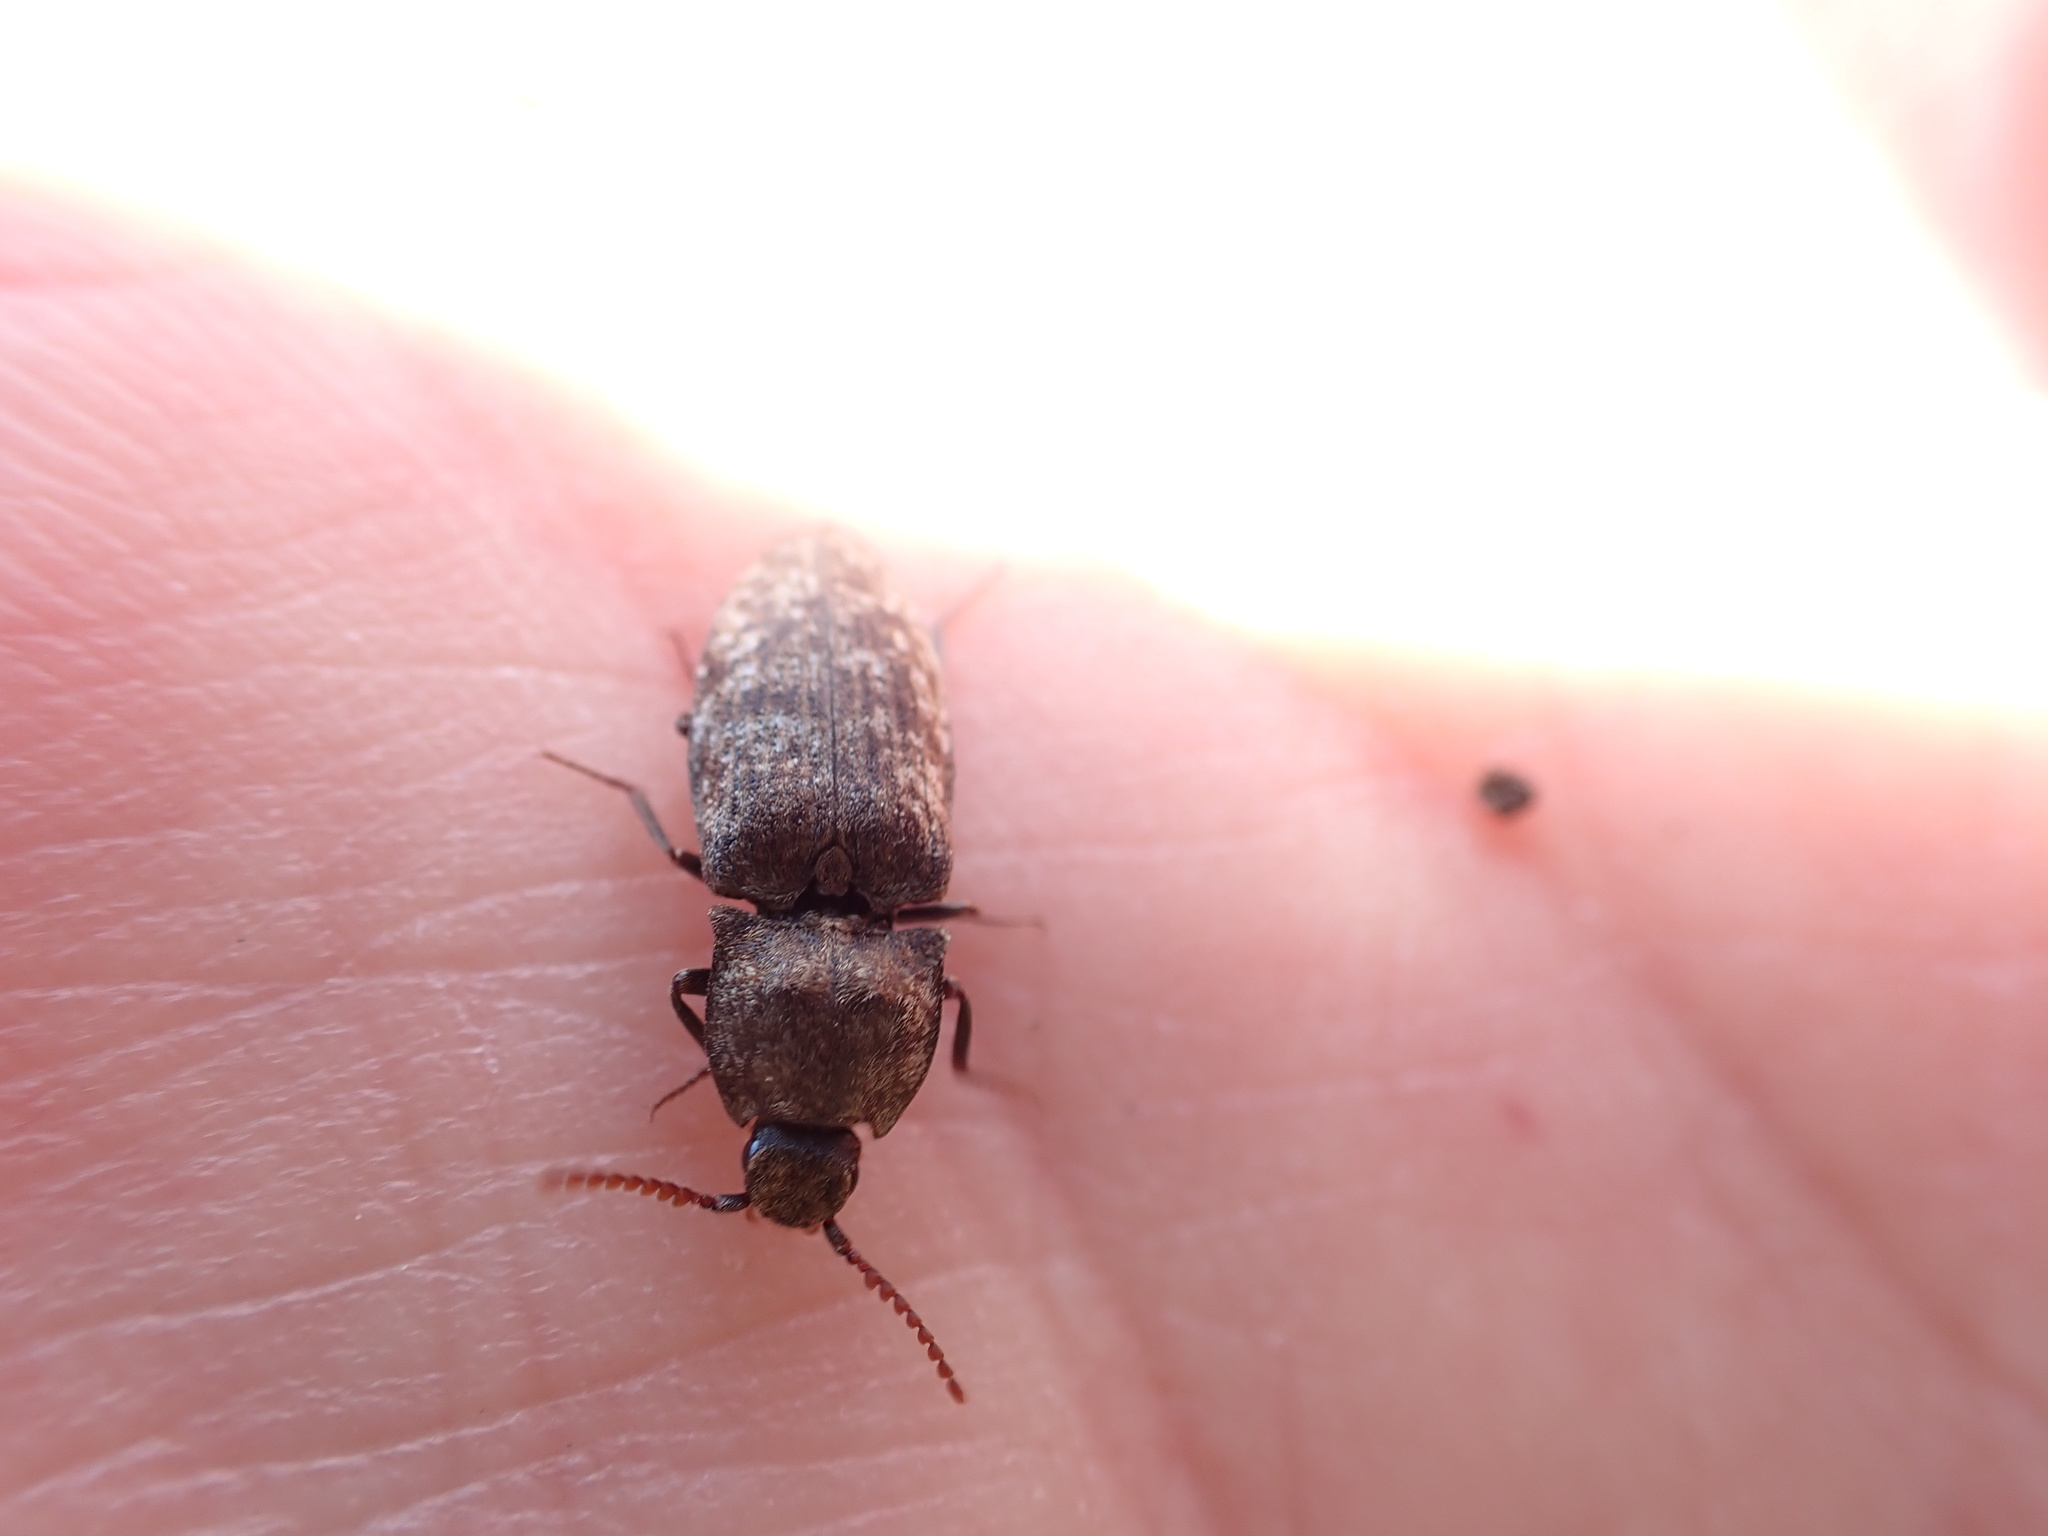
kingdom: Animalia
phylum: Arthropoda
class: Insecta
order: Coleoptera
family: Elateridae
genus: Agrypnus
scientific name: Agrypnus murinus
